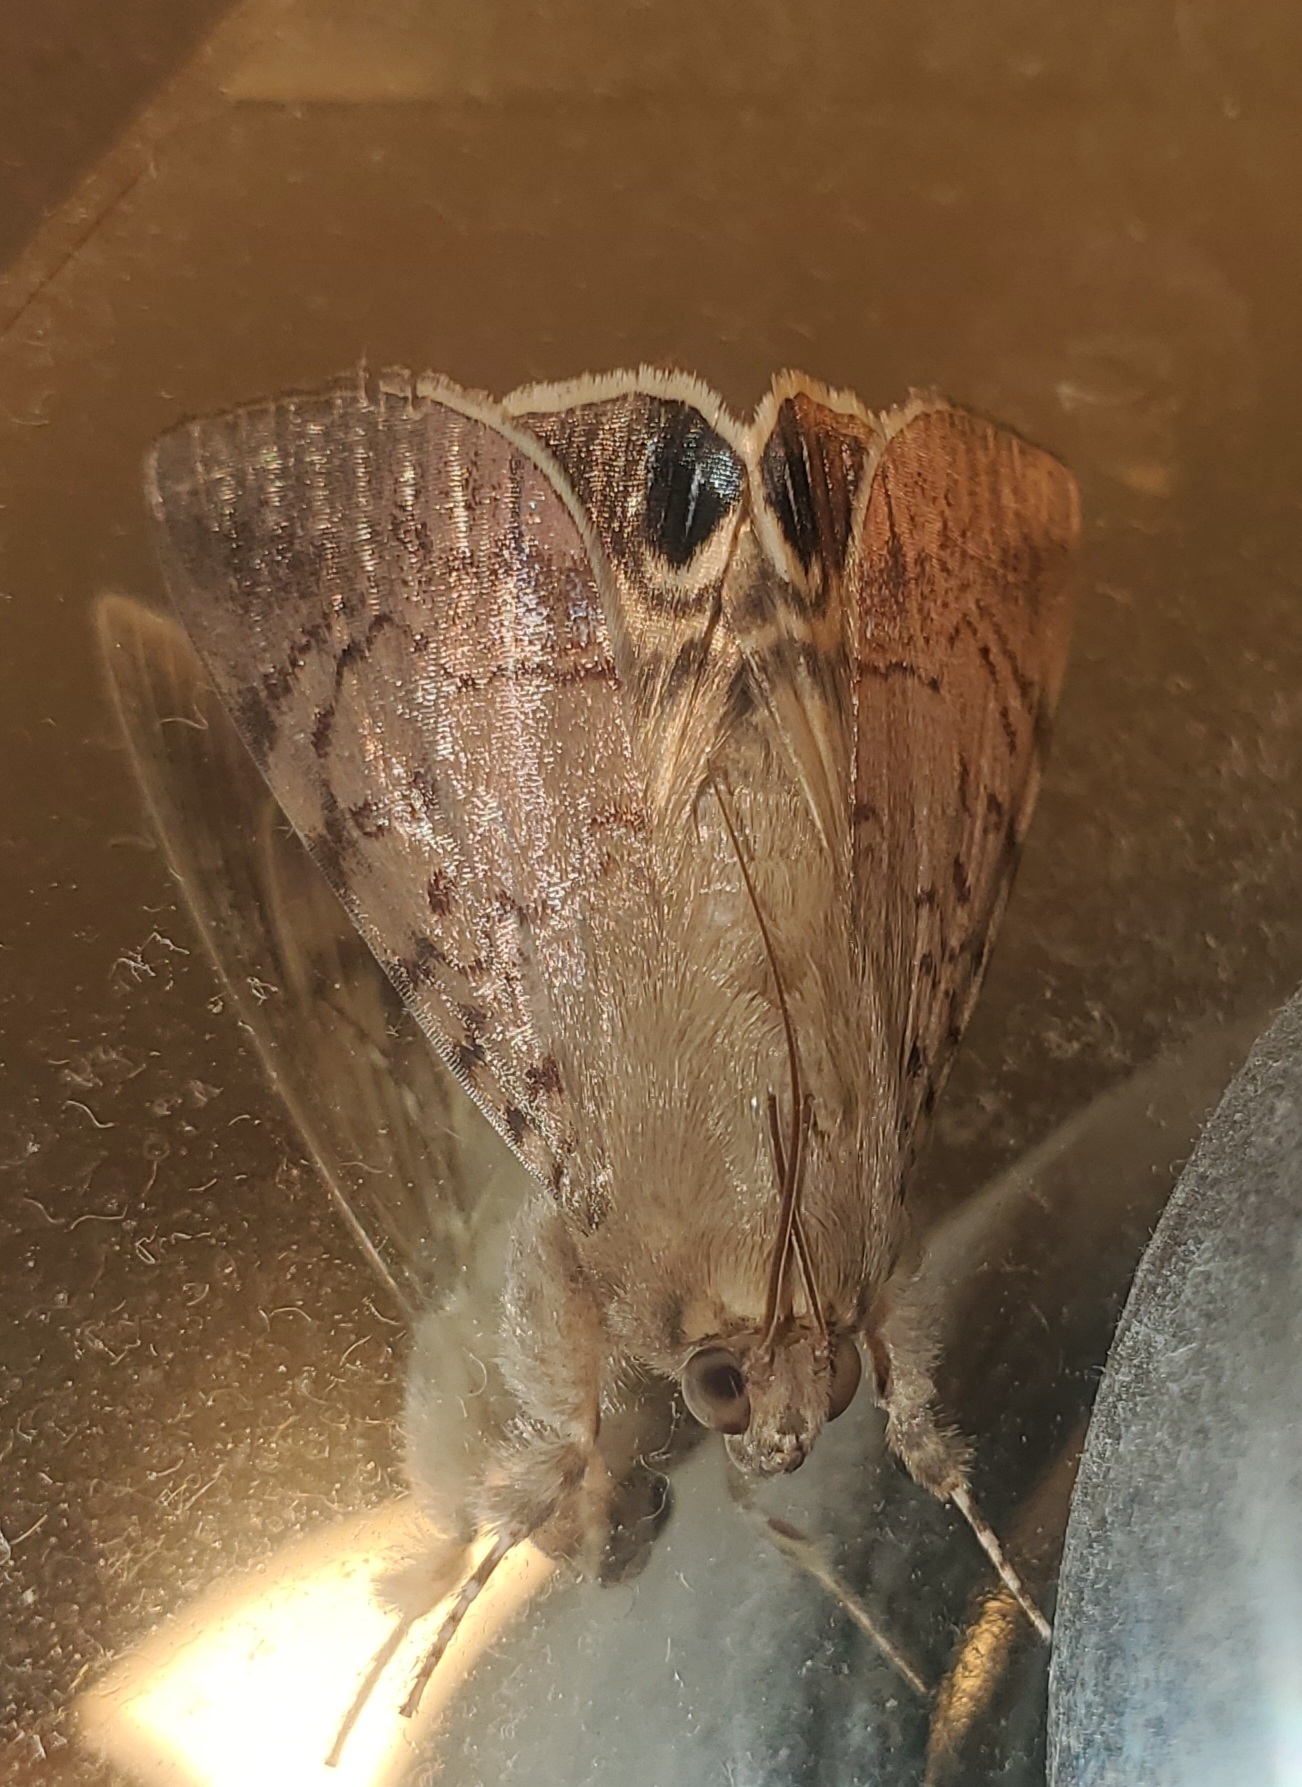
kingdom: Animalia
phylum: Arthropoda
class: Insecta
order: Lepidoptera
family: Erebidae
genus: Litoprosopus
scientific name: Litoprosopus linea
